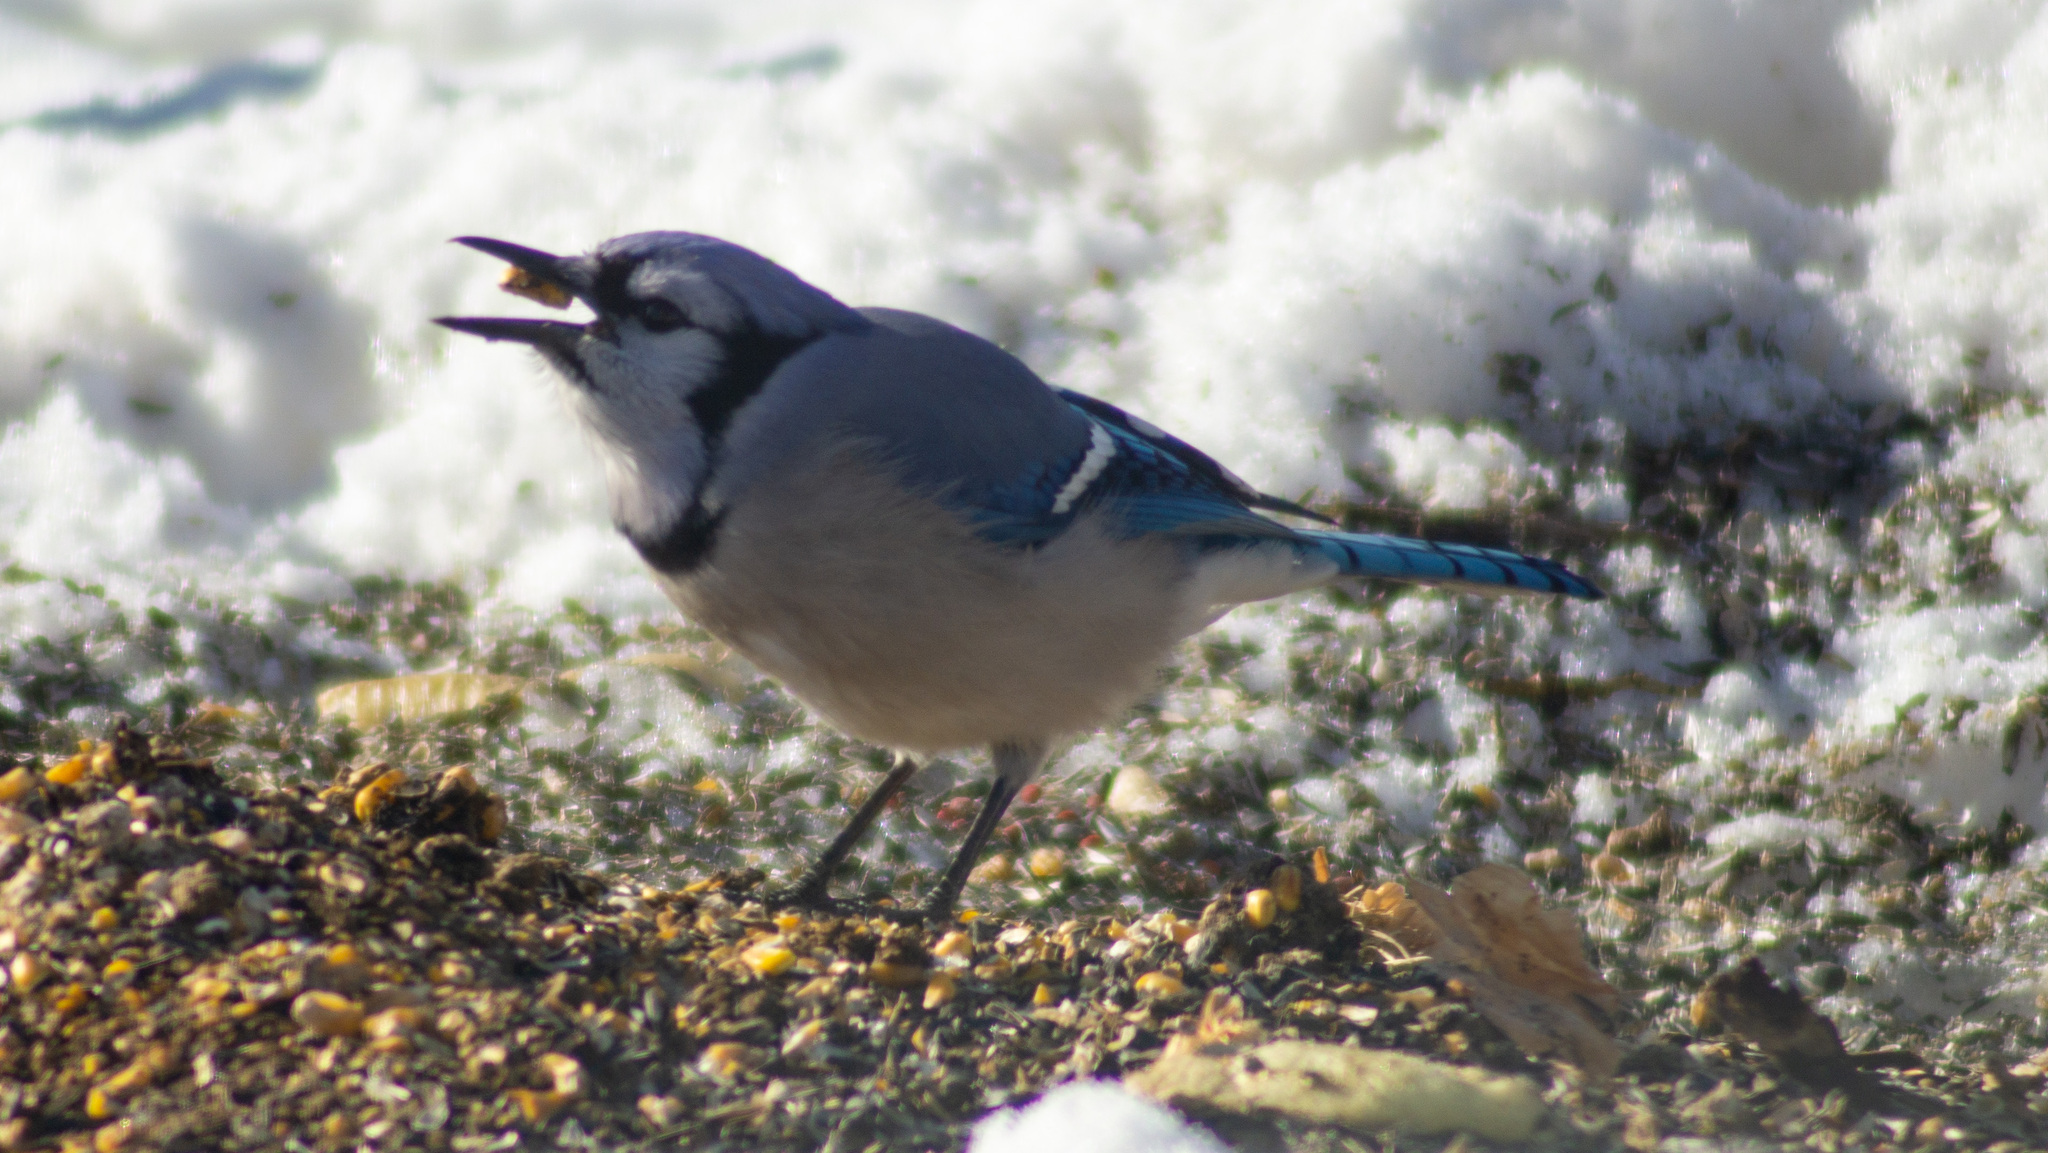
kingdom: Animalia
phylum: Chordata
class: Aves
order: Passeriformes
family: Corvidae
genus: Cyanocitta
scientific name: Cyanocitta cristata
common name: Blue jay
